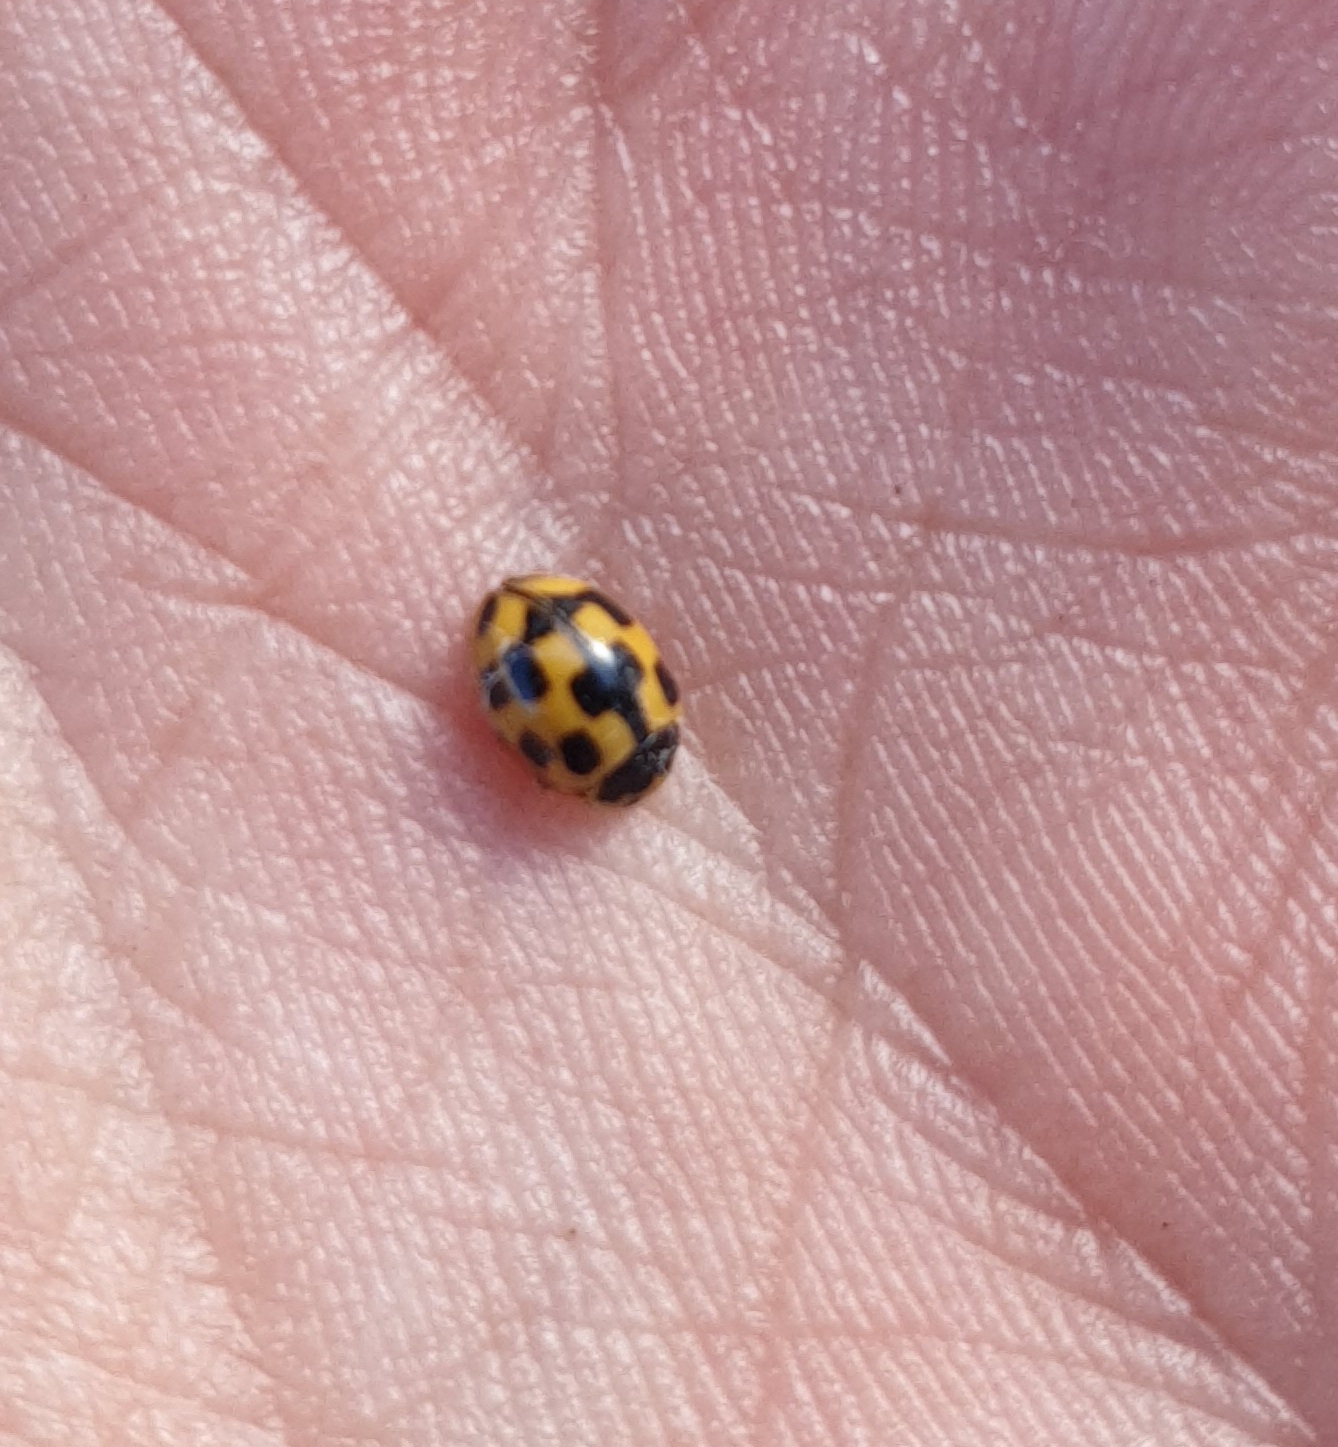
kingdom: Animalia
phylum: Arthropoda
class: Insecta
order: Coleoptera
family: Coccinellidae
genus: Propylaea
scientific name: Propylaea quatuordecimpunctata
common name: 14-spotted ladybird beetle
